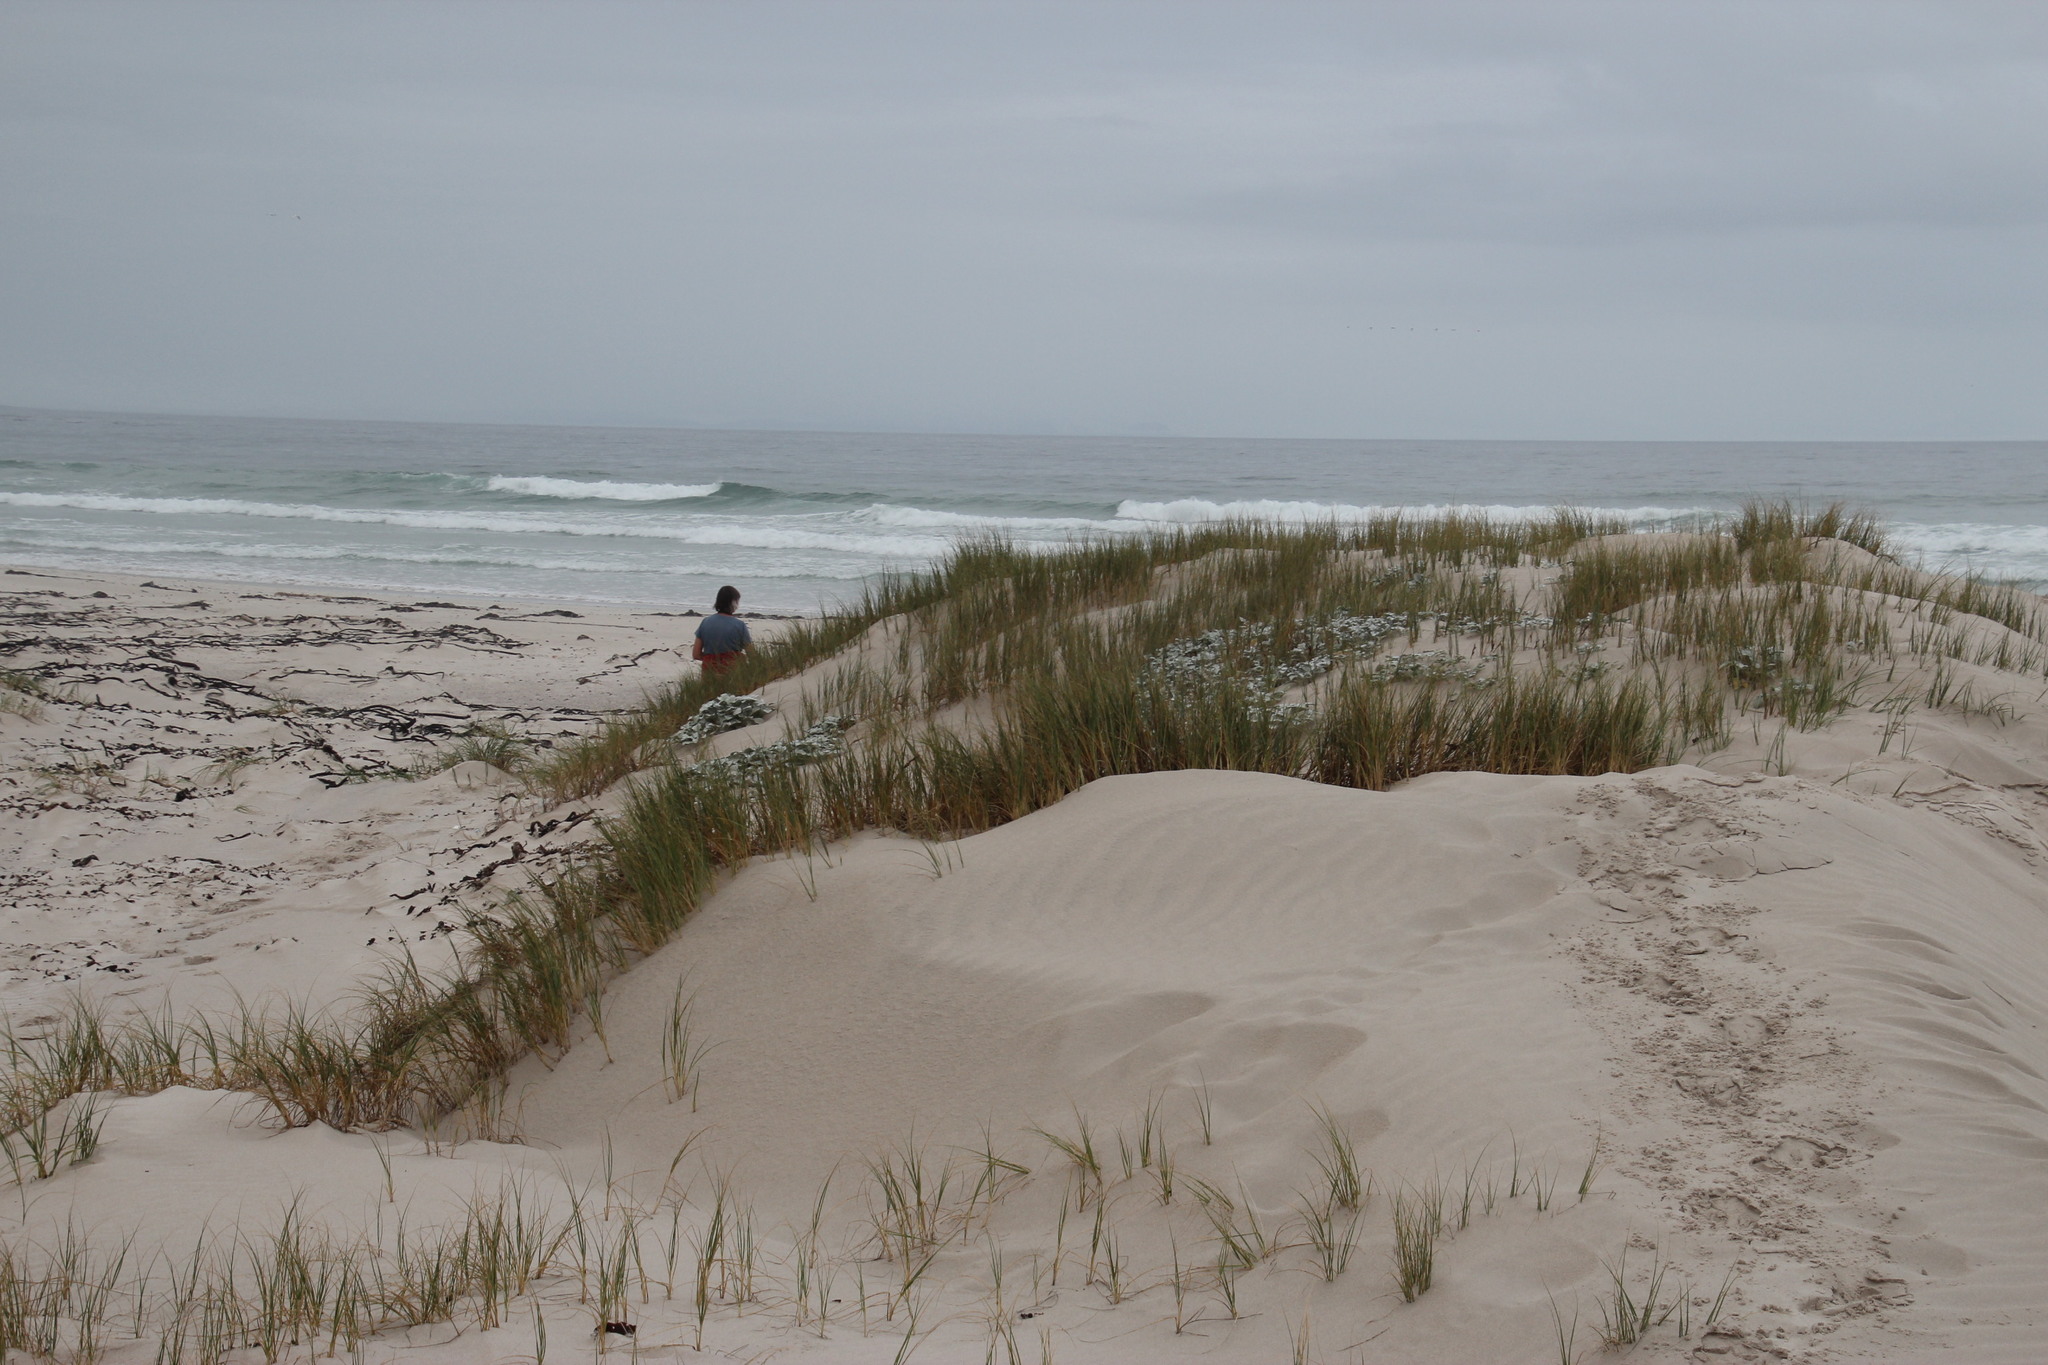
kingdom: Plantae
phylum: Tracheophyta
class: Liliopsida
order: Poales
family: Poaceae
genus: Thinopyrum
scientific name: Thinopyrum distichum
